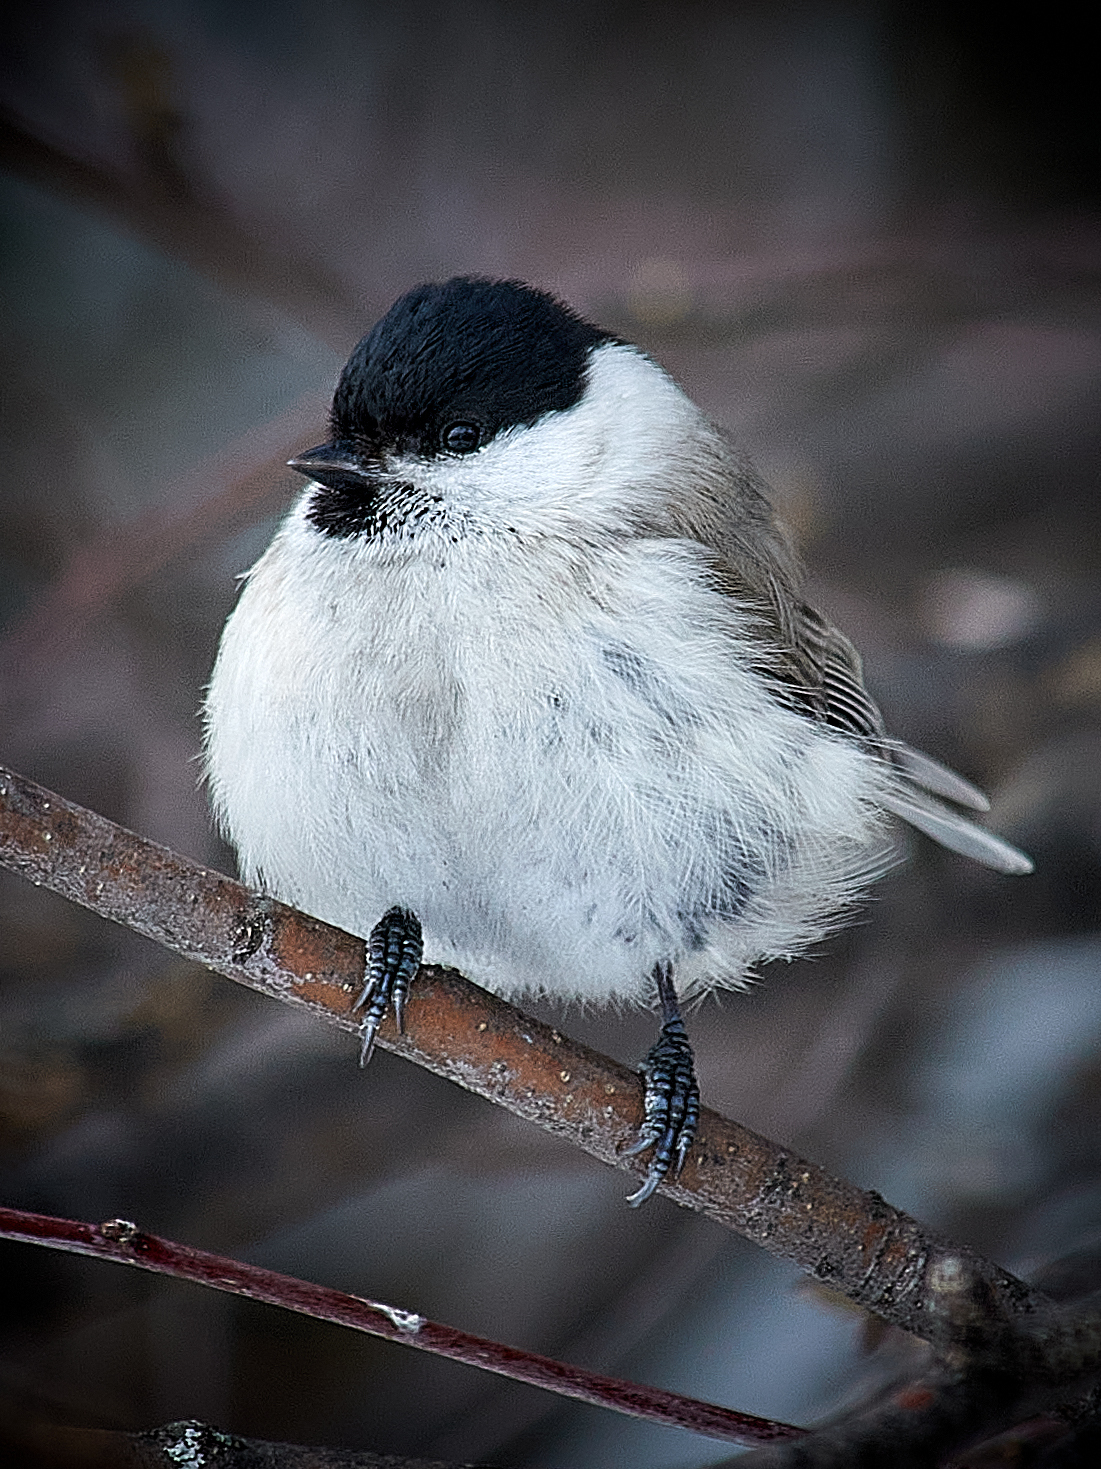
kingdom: Animalia
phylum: Chordata
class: Aves
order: Passeriformes
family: Paridae
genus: Poecile
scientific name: Poecile montanus
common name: Willow tit
